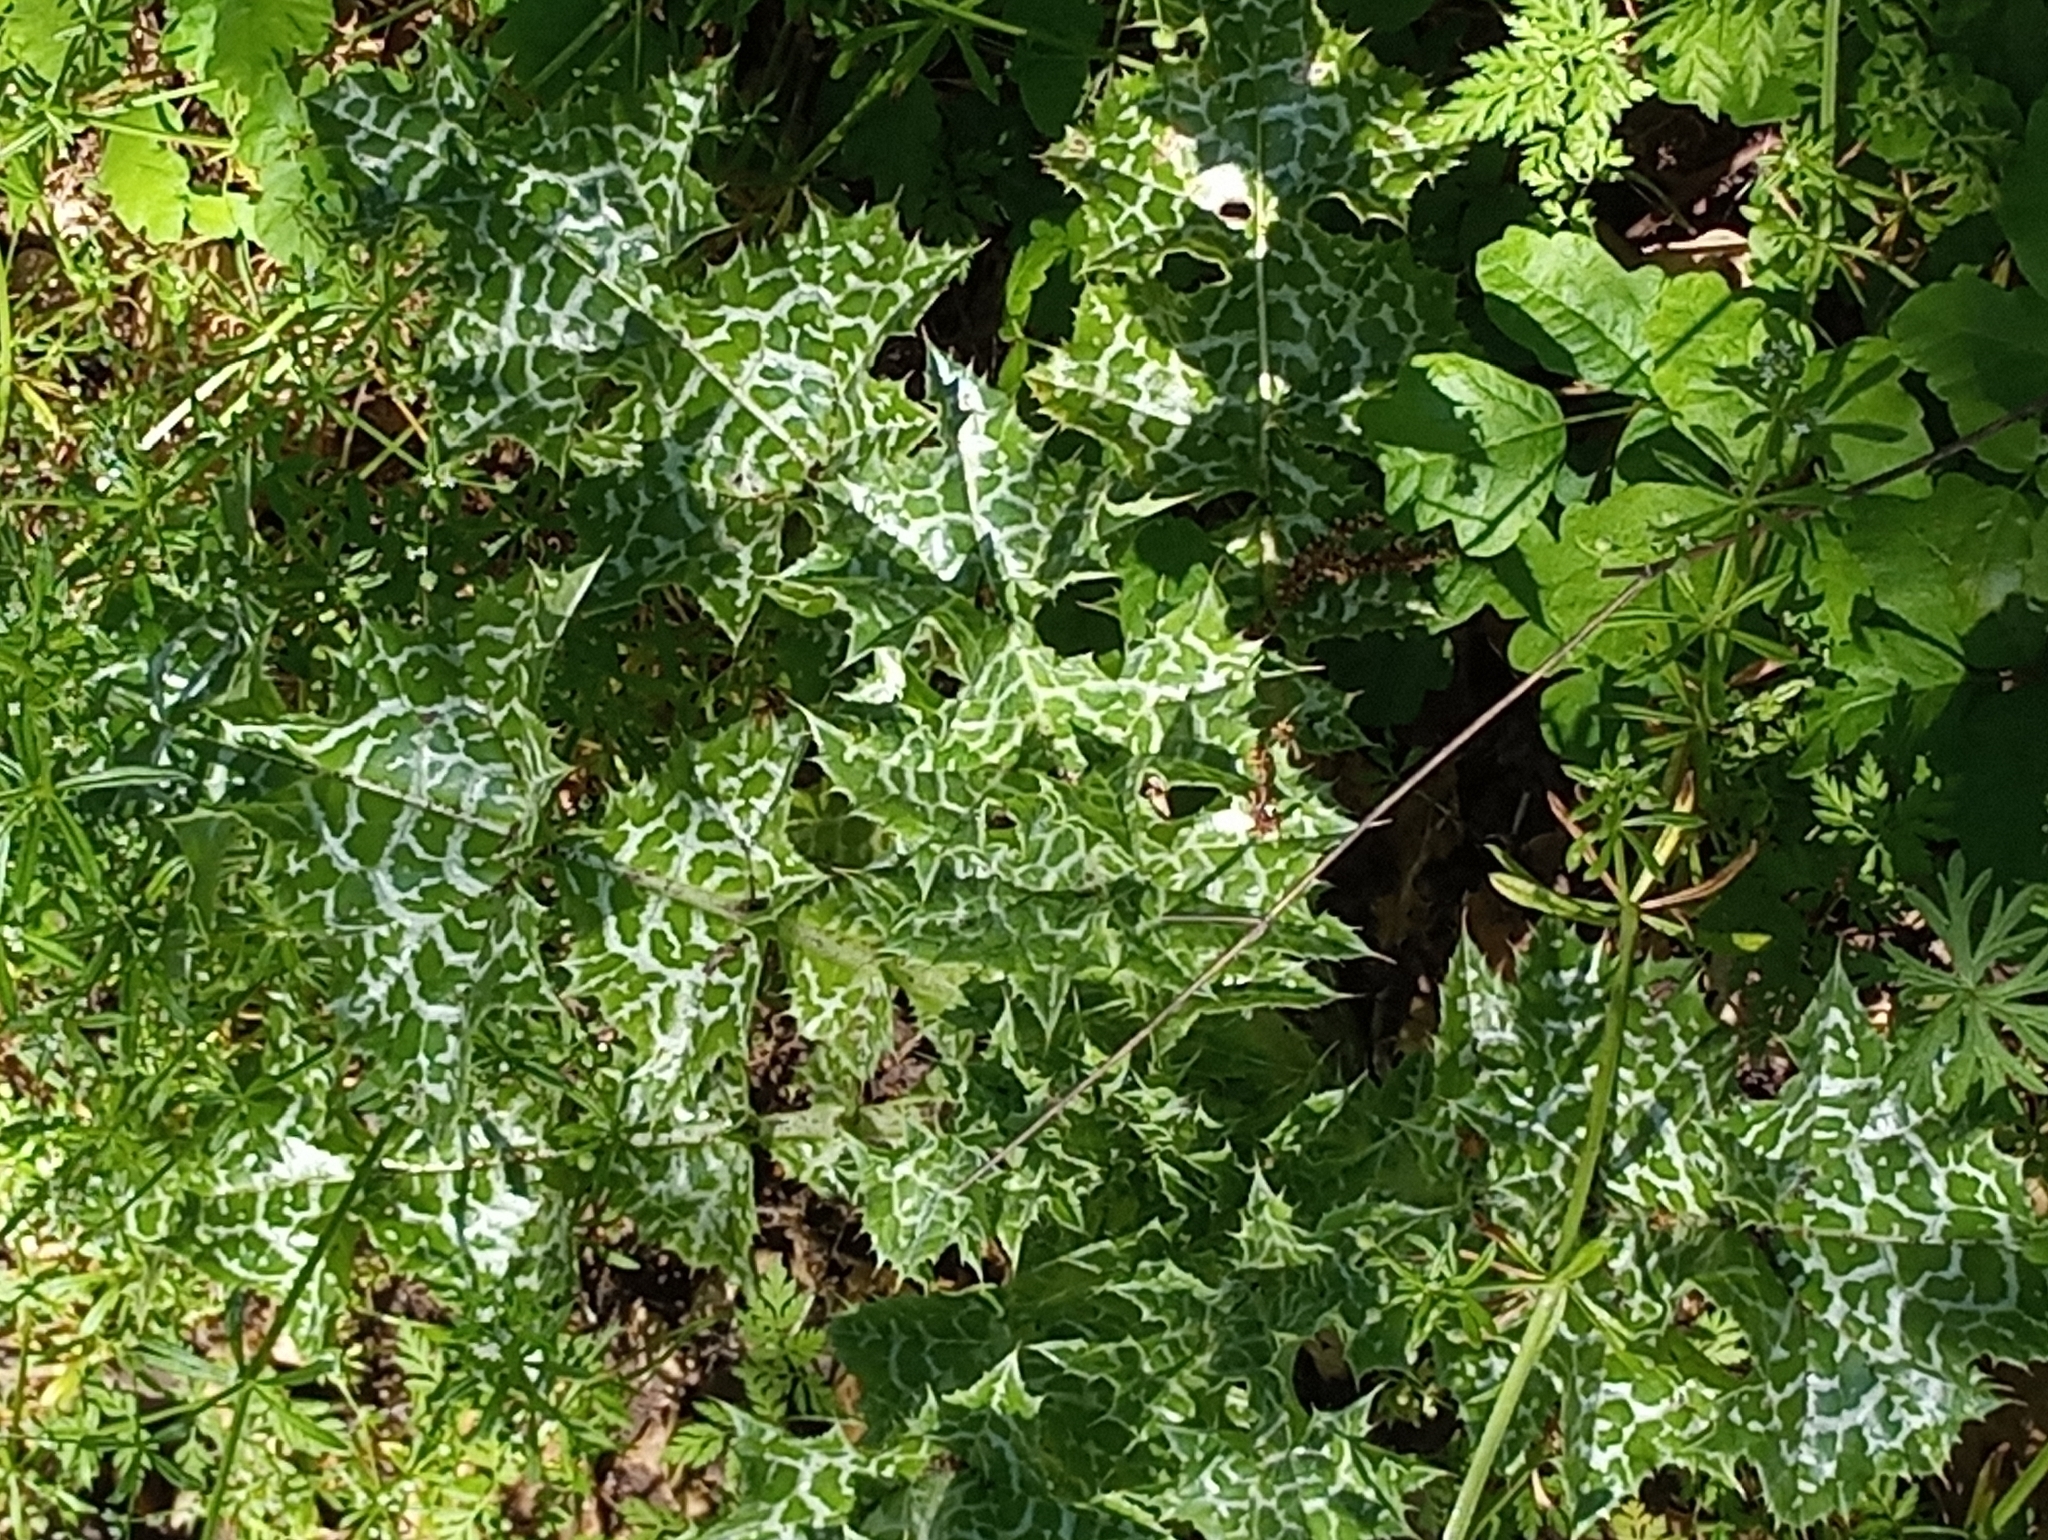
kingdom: Plantae
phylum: Tracheophyta
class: Magnoliopsida
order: Asterales
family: Asteraceae
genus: Silybum
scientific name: Silybum marianum
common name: Milk thistle
